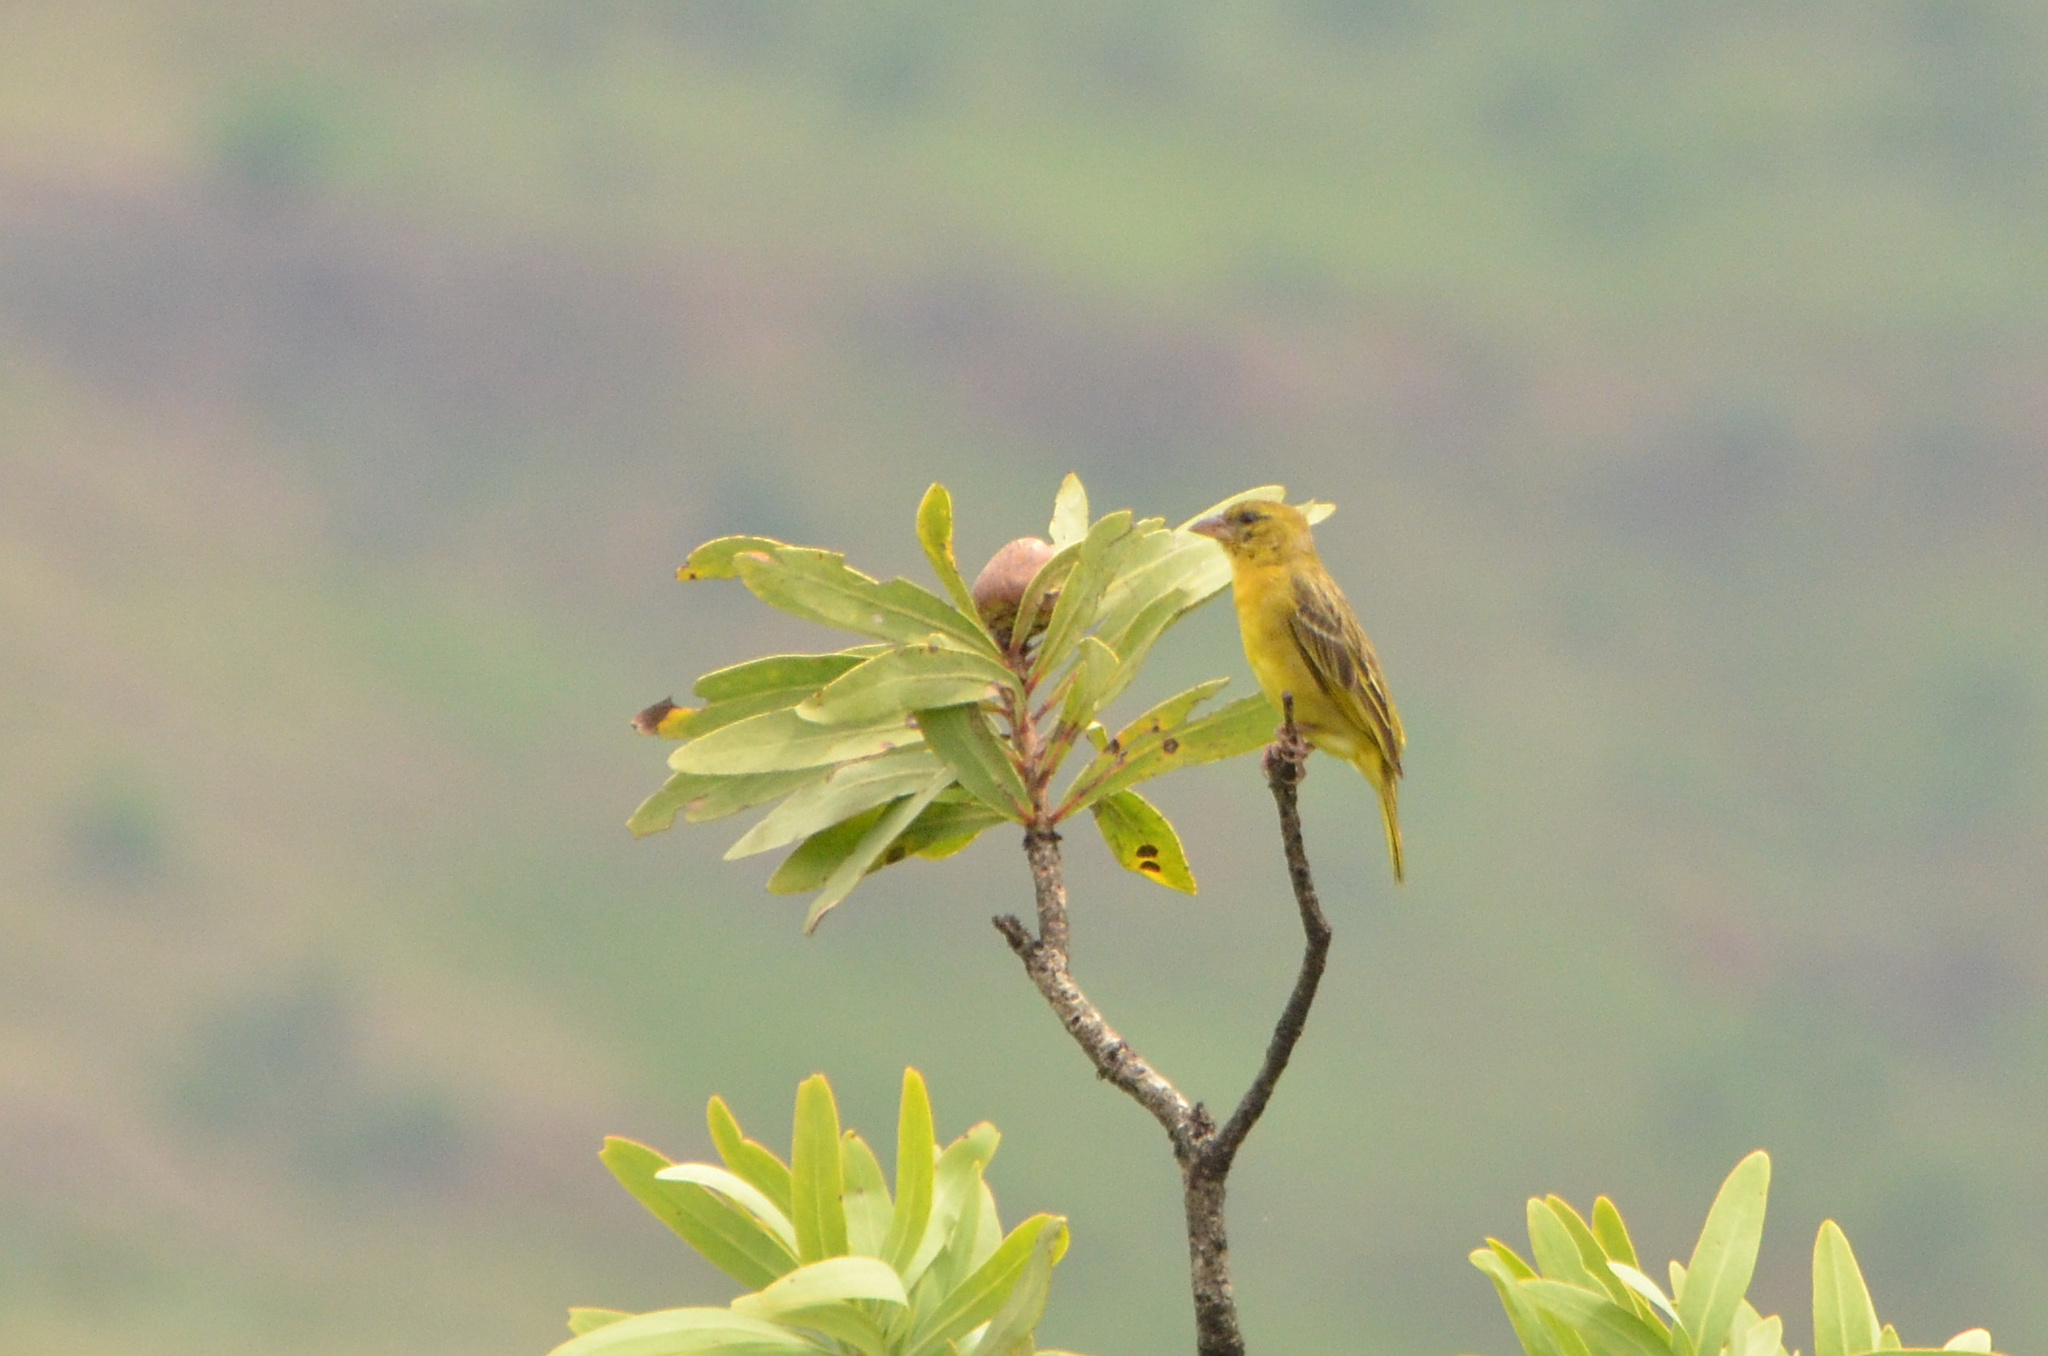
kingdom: Animalia
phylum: Chordata
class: Aves
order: Passeriformes
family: Ploceidae
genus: Ploceus
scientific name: Ploceus velatus
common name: Southern masked weaver
